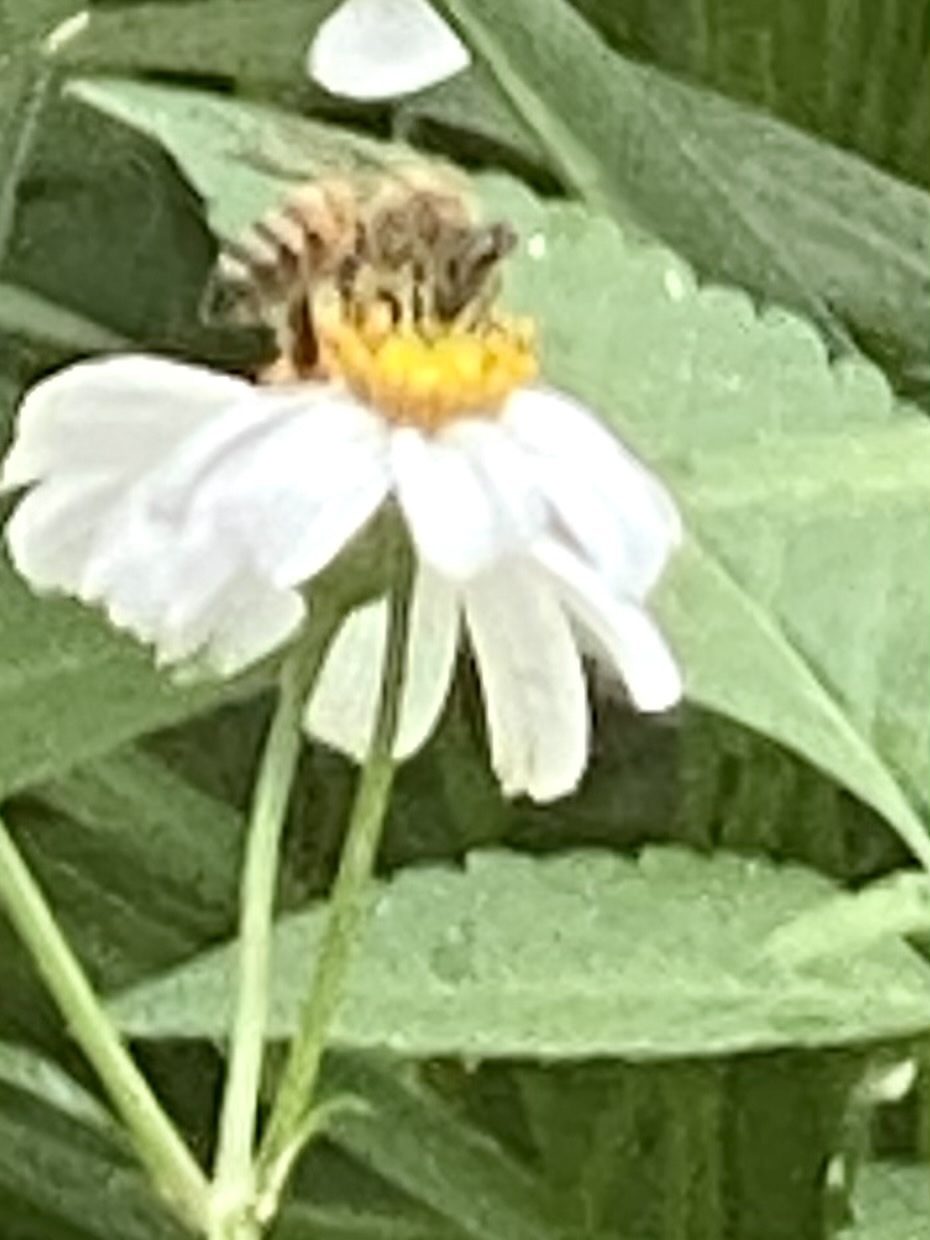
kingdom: Animalia
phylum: Arthropoda
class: Insecta
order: Hymenoptera
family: Apidae
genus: Apis
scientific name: Apis mellifera
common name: Honey bee
